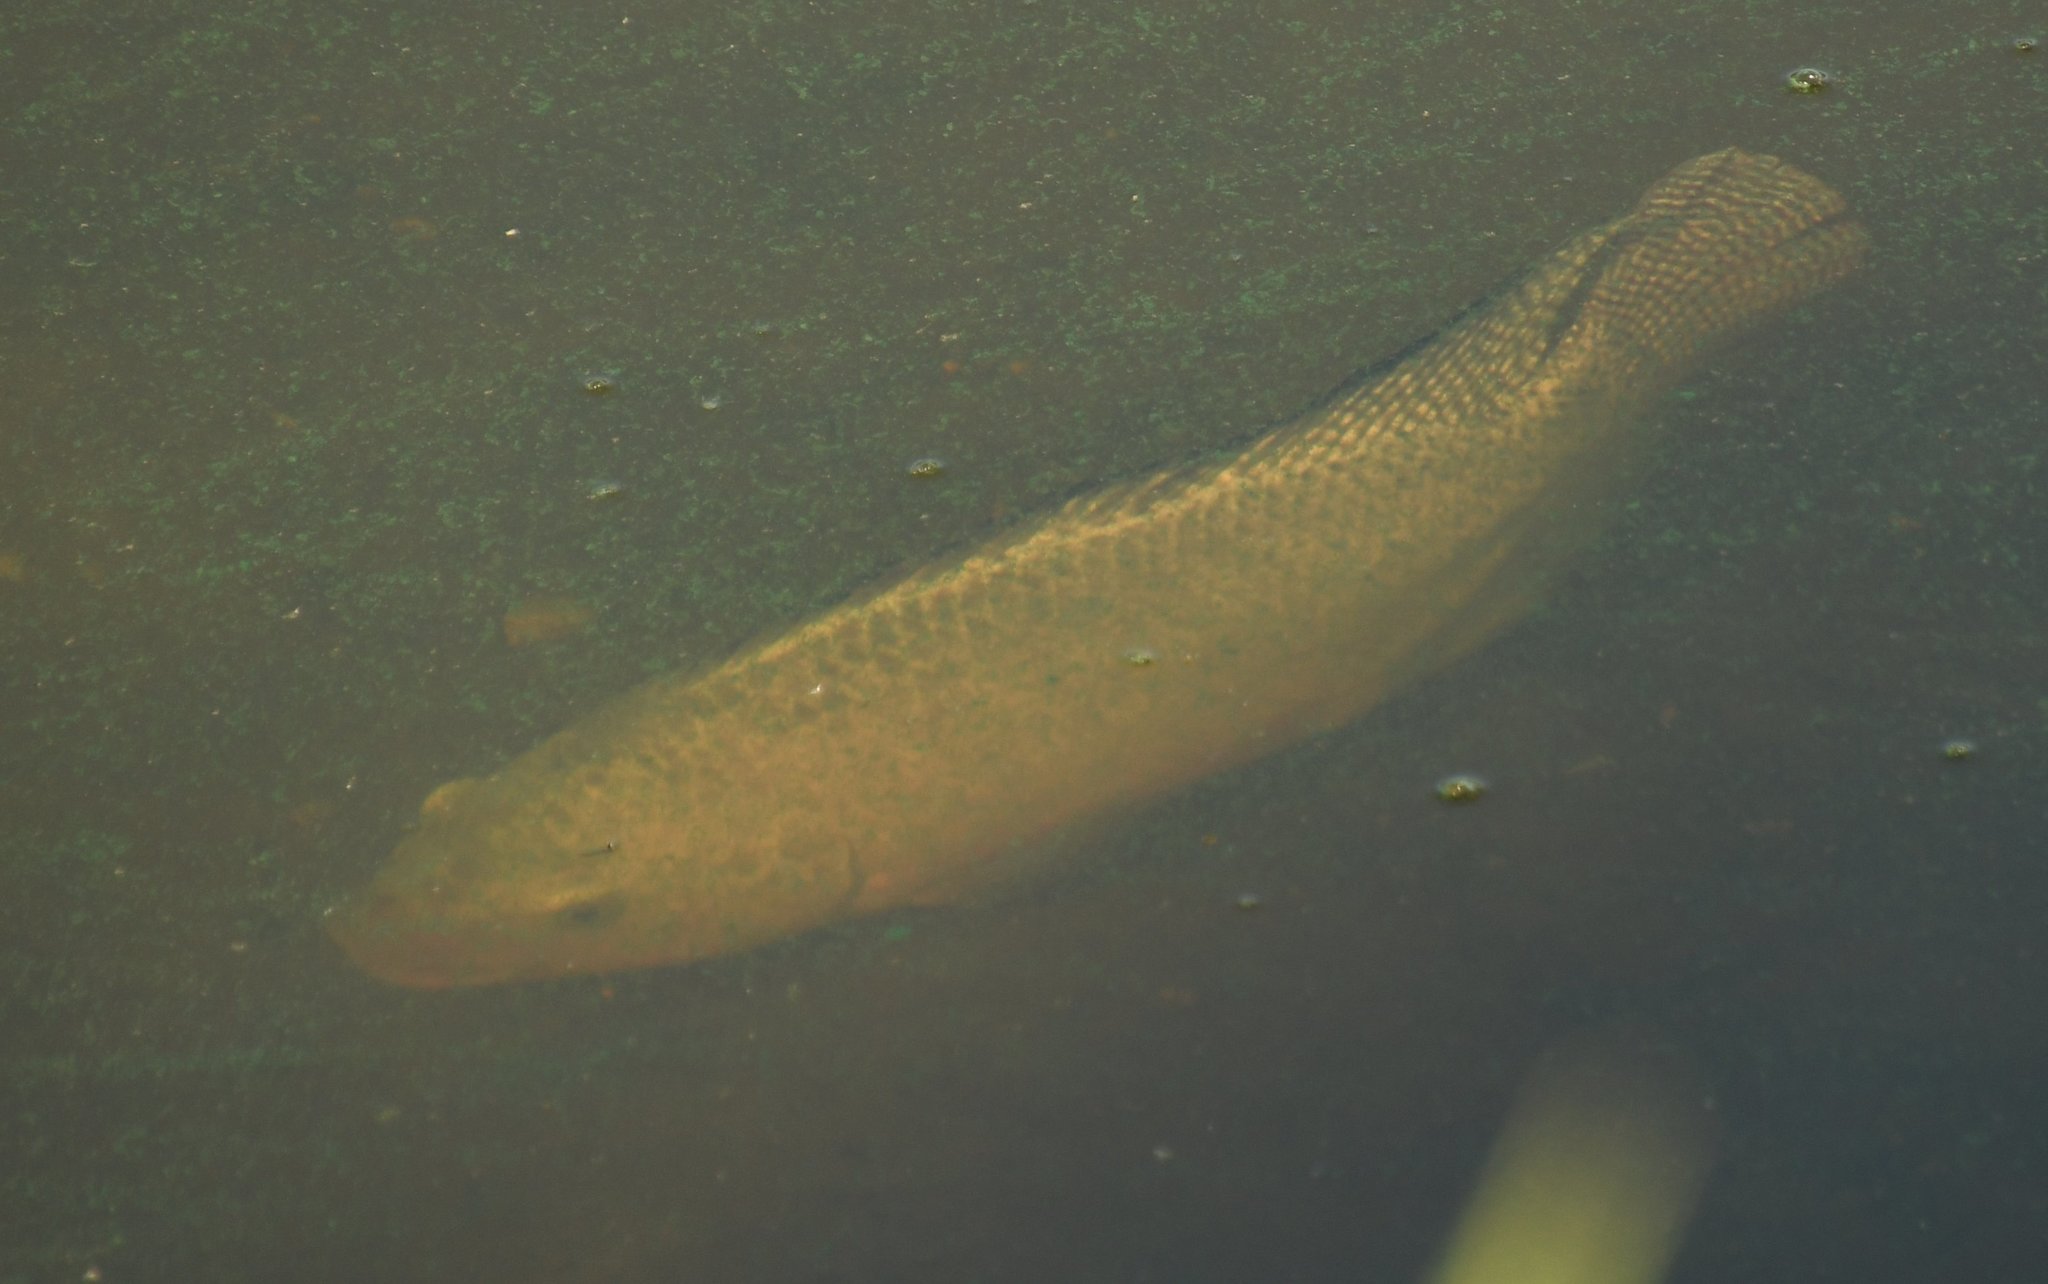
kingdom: Animalia
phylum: Chordata
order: Perciformes
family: Cichlidae
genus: Oreochromis
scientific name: Oreochromis niloticus
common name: Nile tilapia
